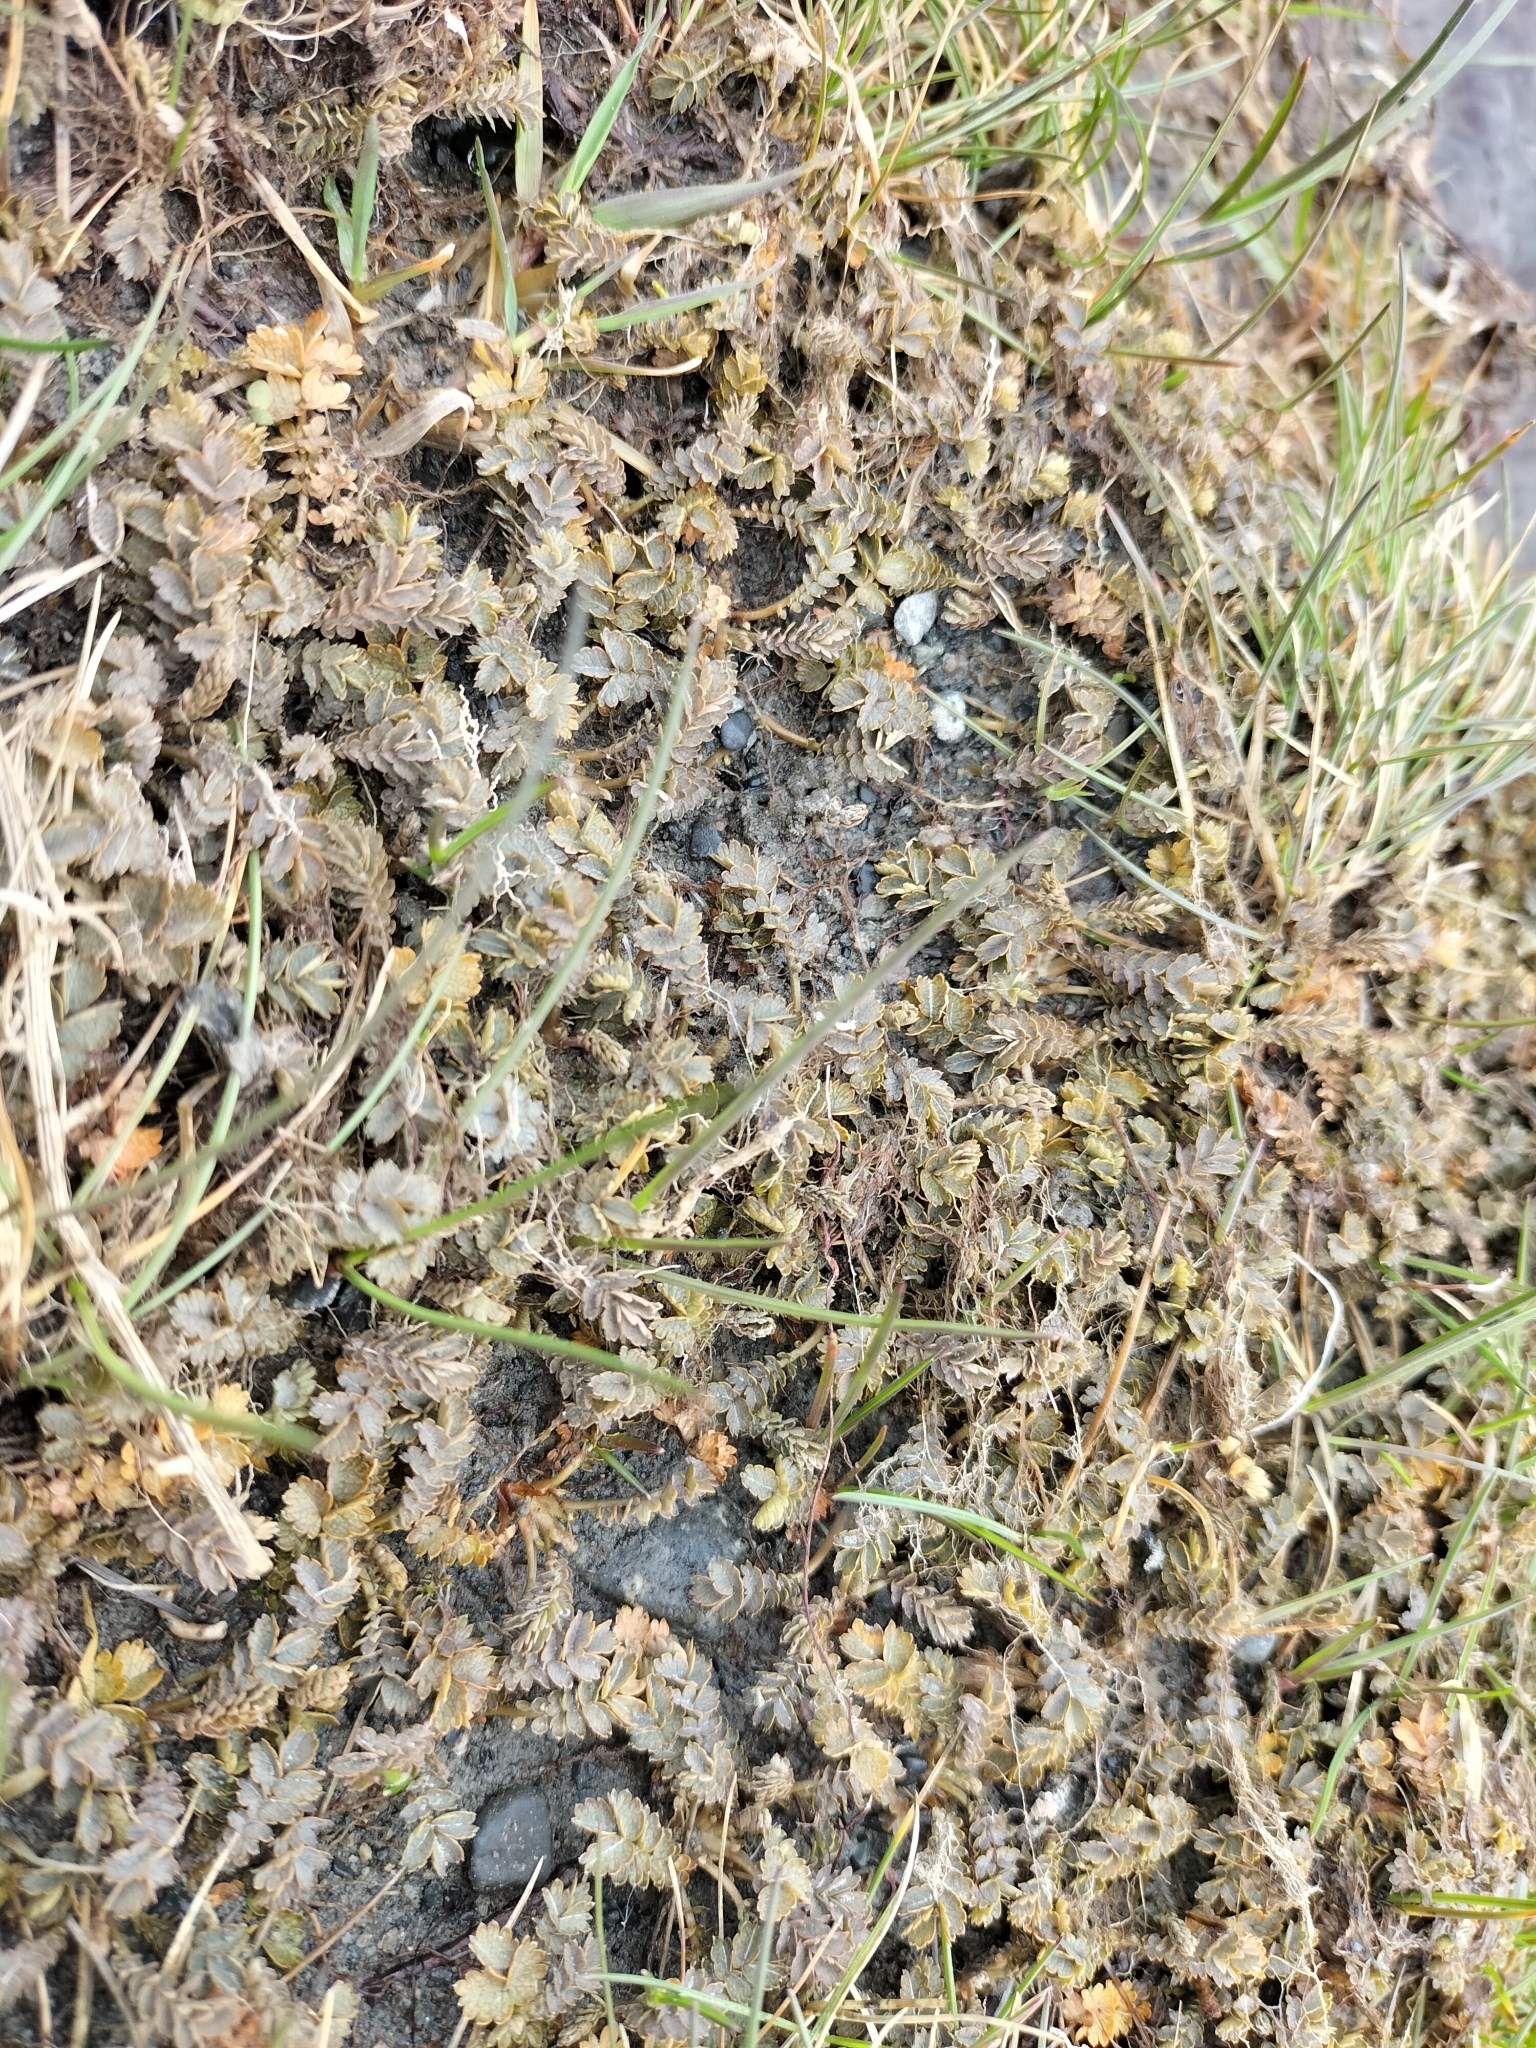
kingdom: Plantae
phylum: Tracheophyta
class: Magnoliopsida
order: Rosales
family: Rosaceae
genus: Acaena
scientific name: Acaena buchananii
